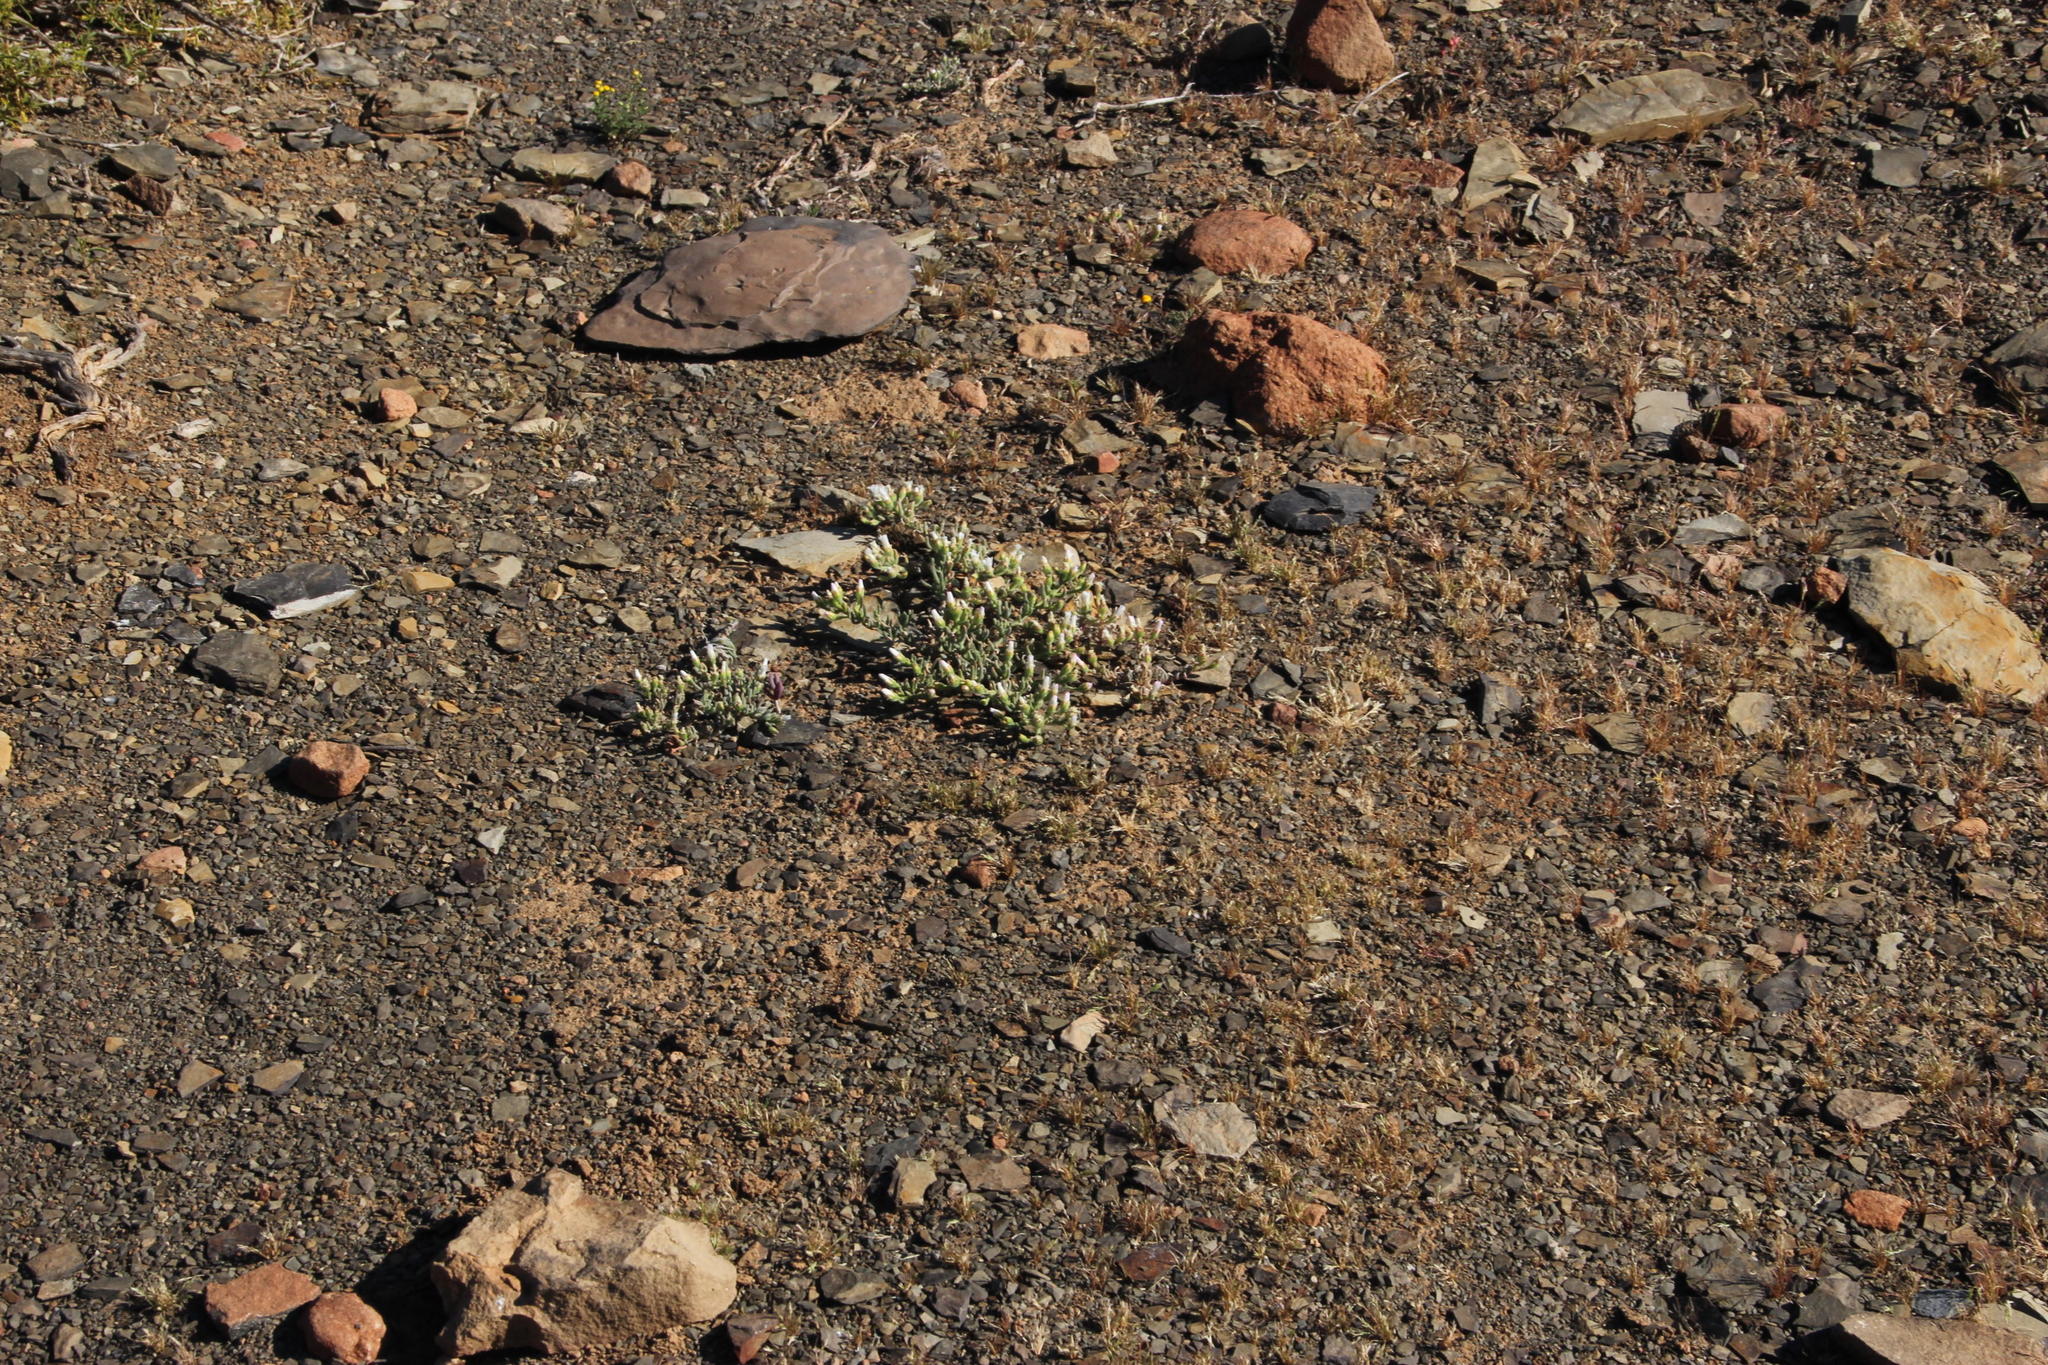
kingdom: Plantae
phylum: Tracheophyta
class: Magnoliopsida
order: Caryophyllales
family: Aizoaceae
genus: Mesembryanthemum
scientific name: Mesembryanthemum nodiflorum
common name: Slenderleaf iceplant
